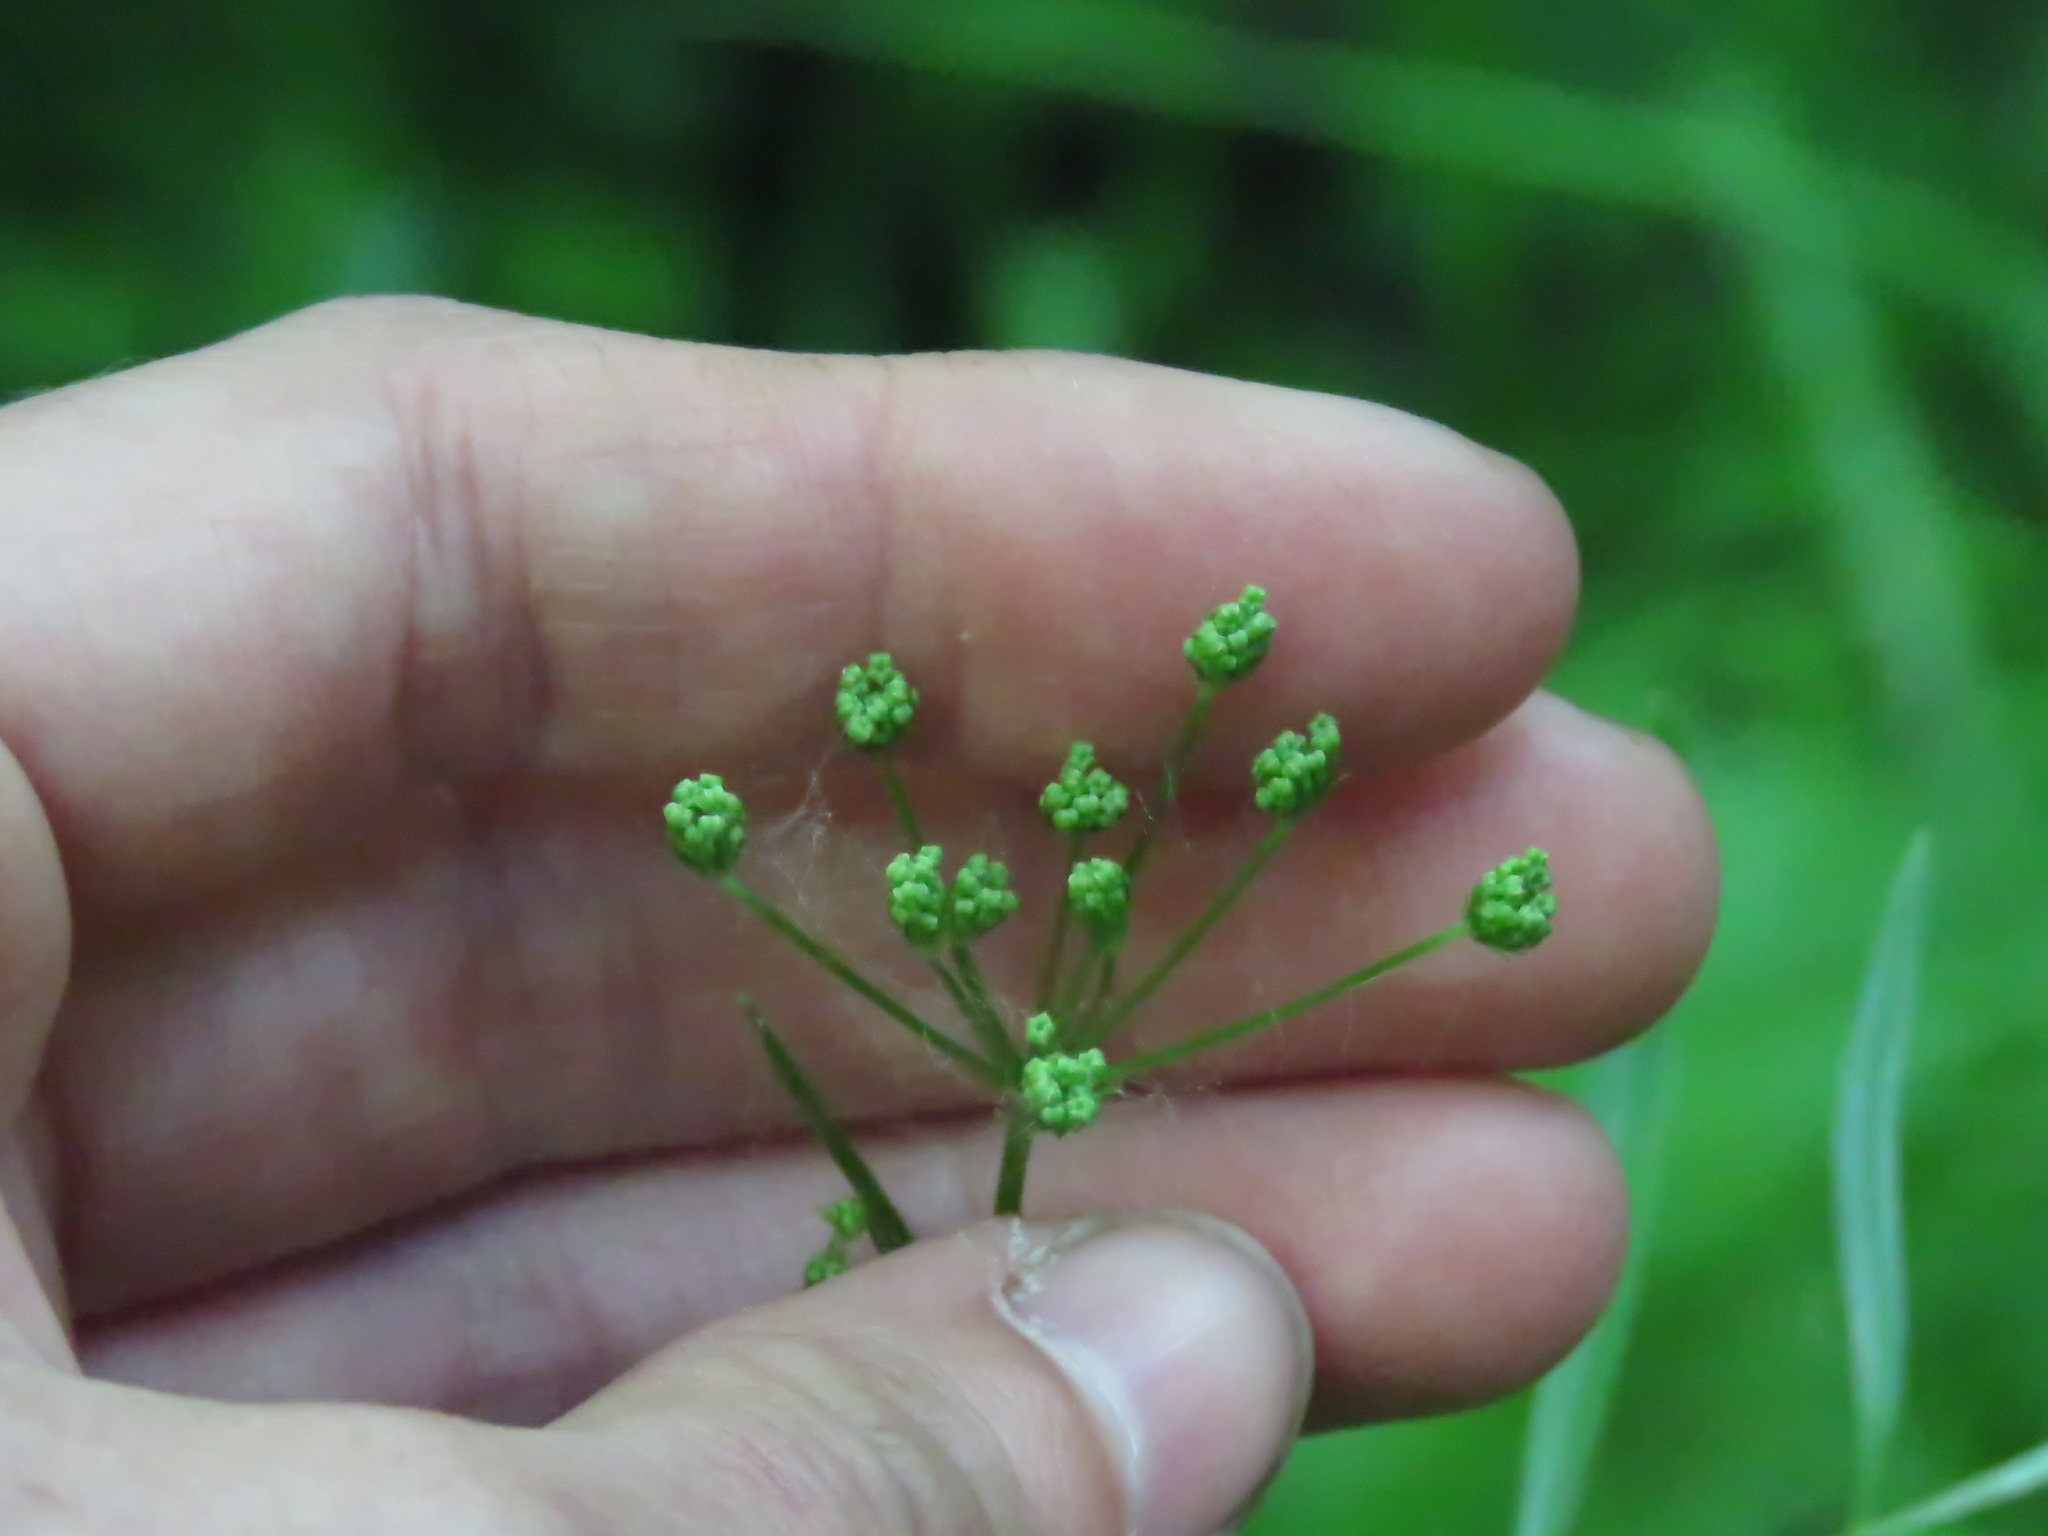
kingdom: Plantae
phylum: Tracheophyta
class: Magnoliopsida
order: Apiales
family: Apiaceae
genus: Perideridia
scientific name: Perideridia americana
